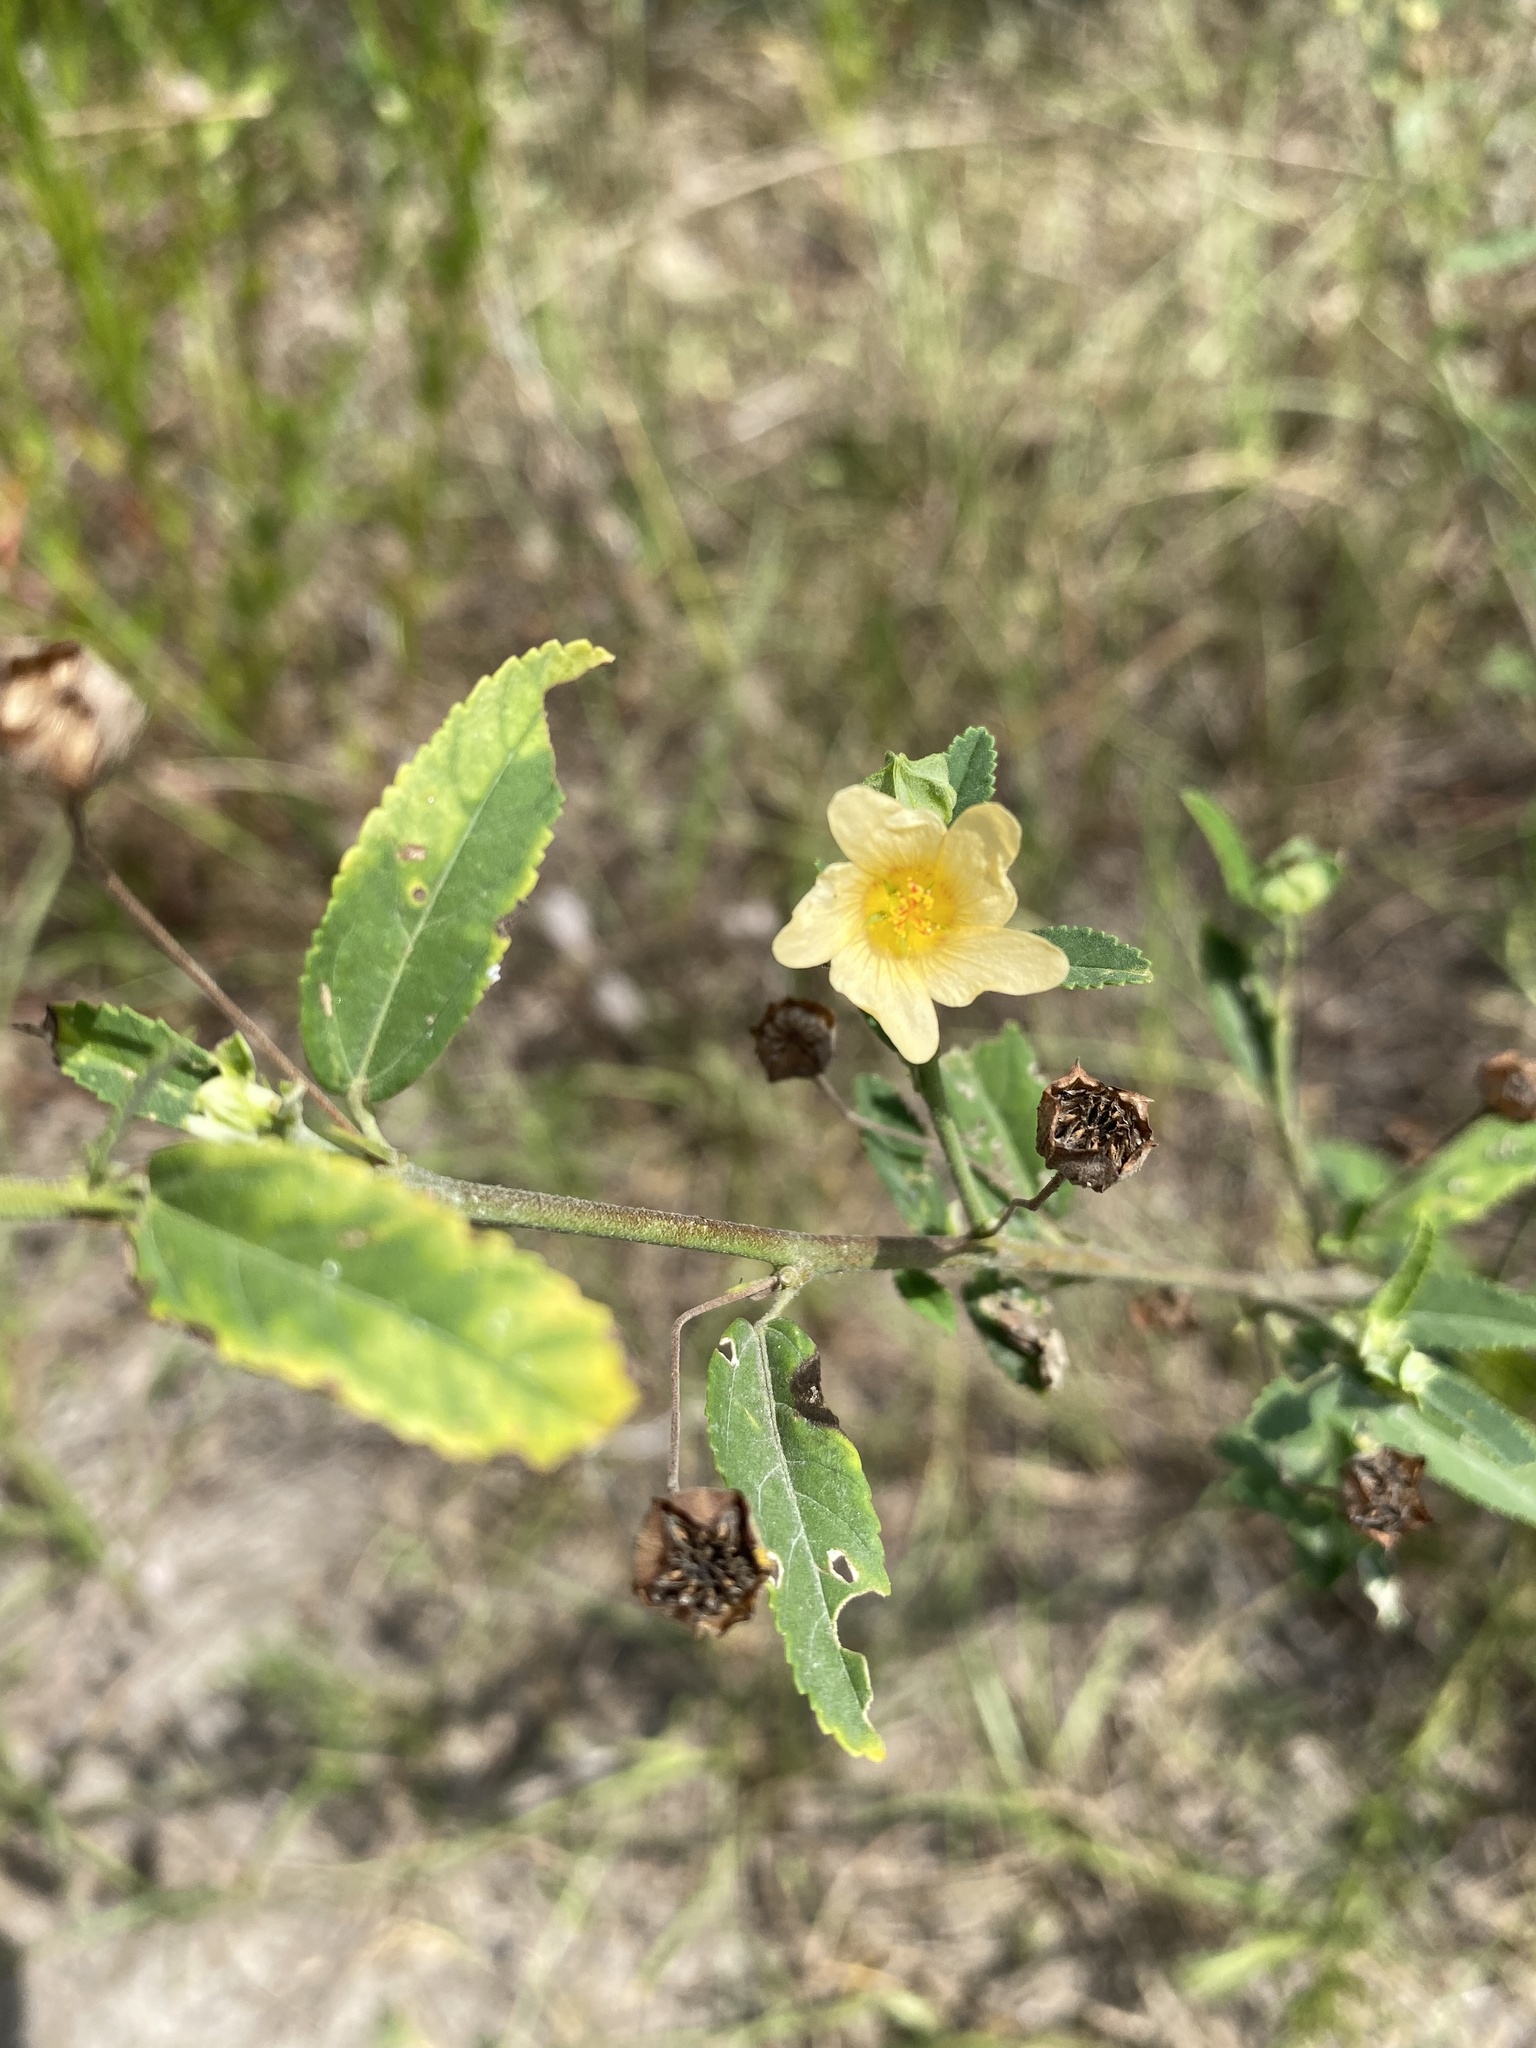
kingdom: Plantae
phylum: Tracheophyta
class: Magnoliopsida
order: Malvales
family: Malvaceae
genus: Sida
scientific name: Sida rhombifolia
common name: Queensland-hemp
